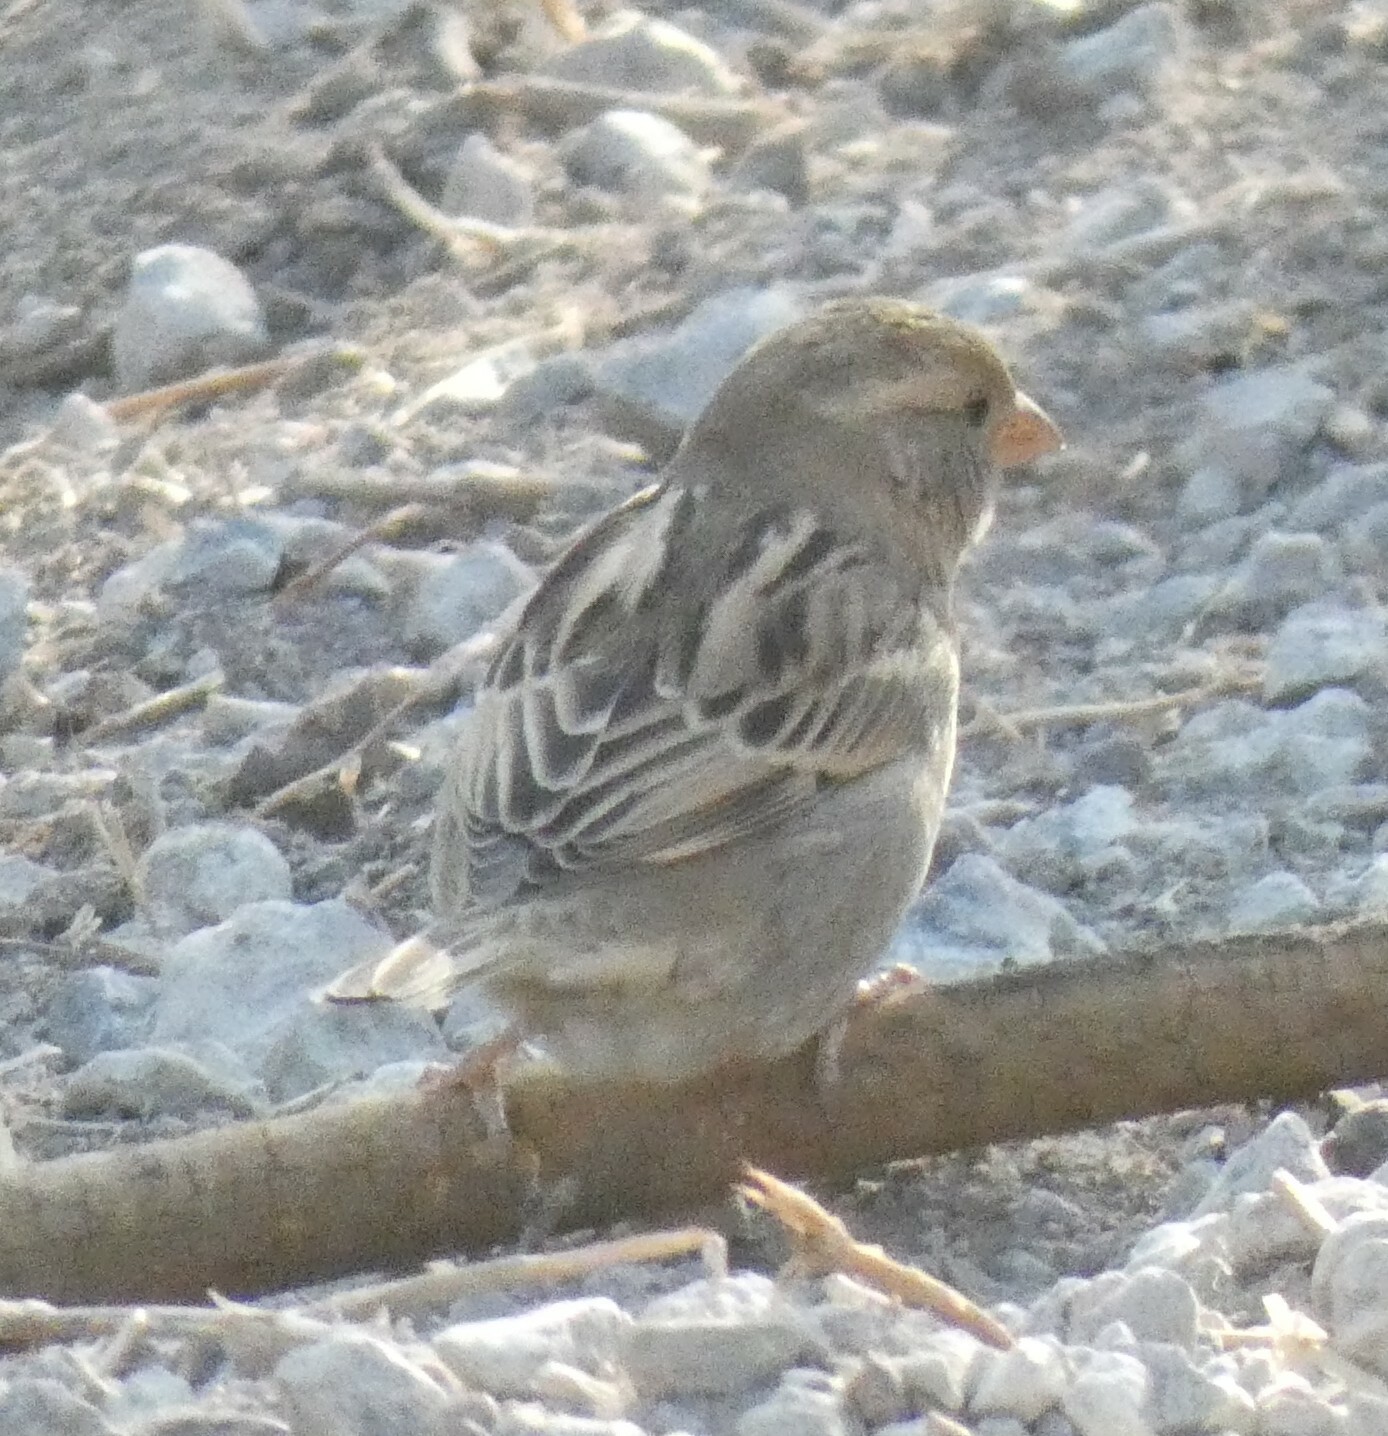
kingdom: Animalia
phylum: Chordata
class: Aves
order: Passeriformes
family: Passeridae
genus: Passer
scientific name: Passer domesticus
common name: House sparrow
